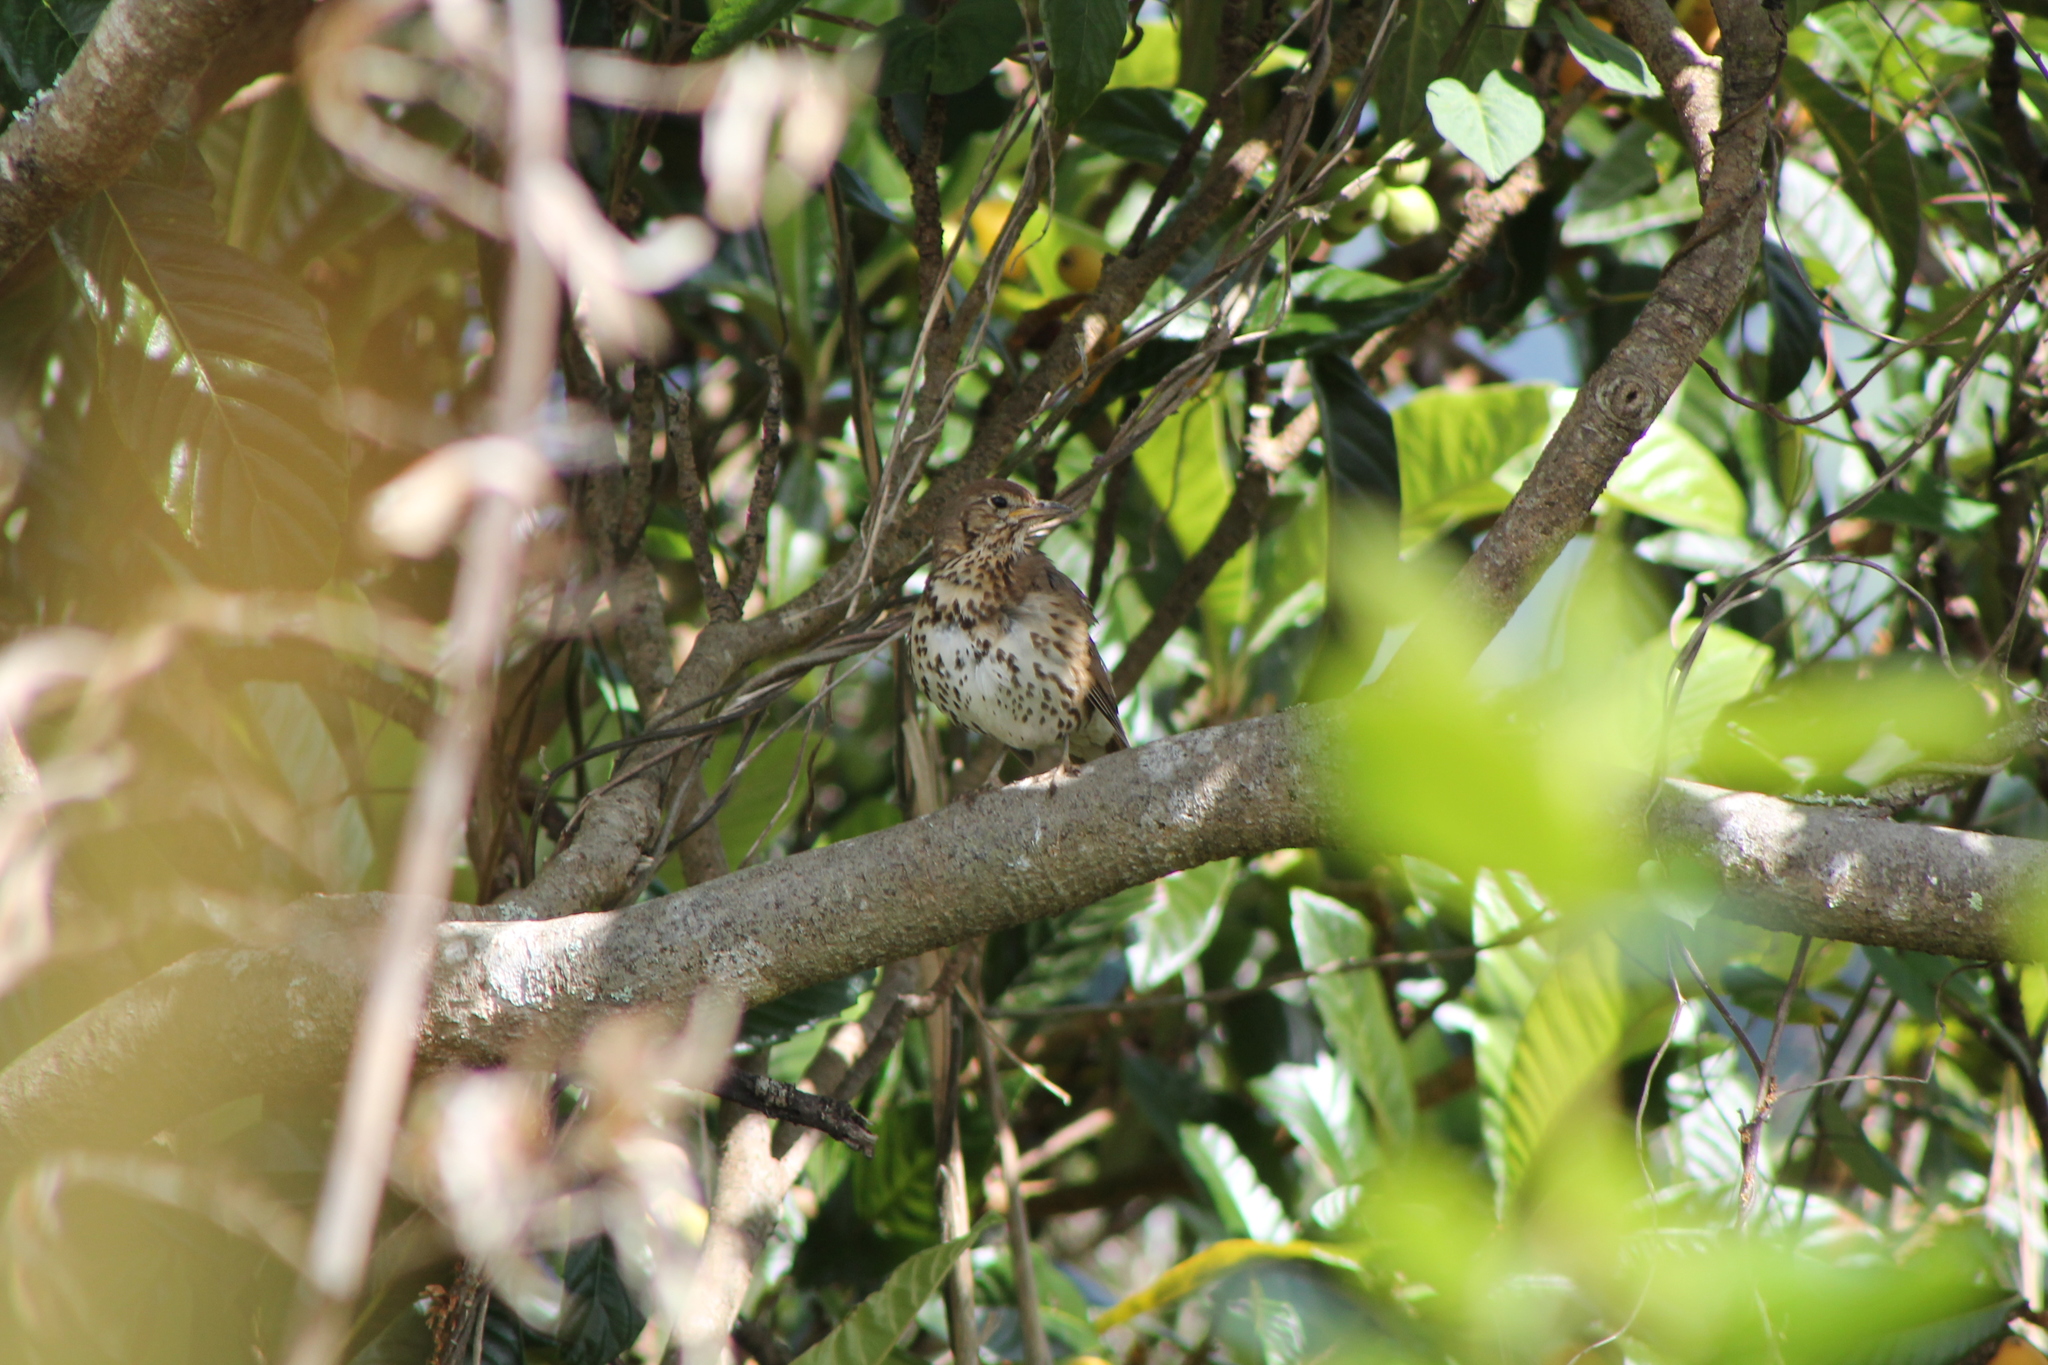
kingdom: Animalia
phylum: Chordata
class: Aves
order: Passeriformes
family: Turdidae
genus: Turdus
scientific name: Turdus philomelos
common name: Song thrush
